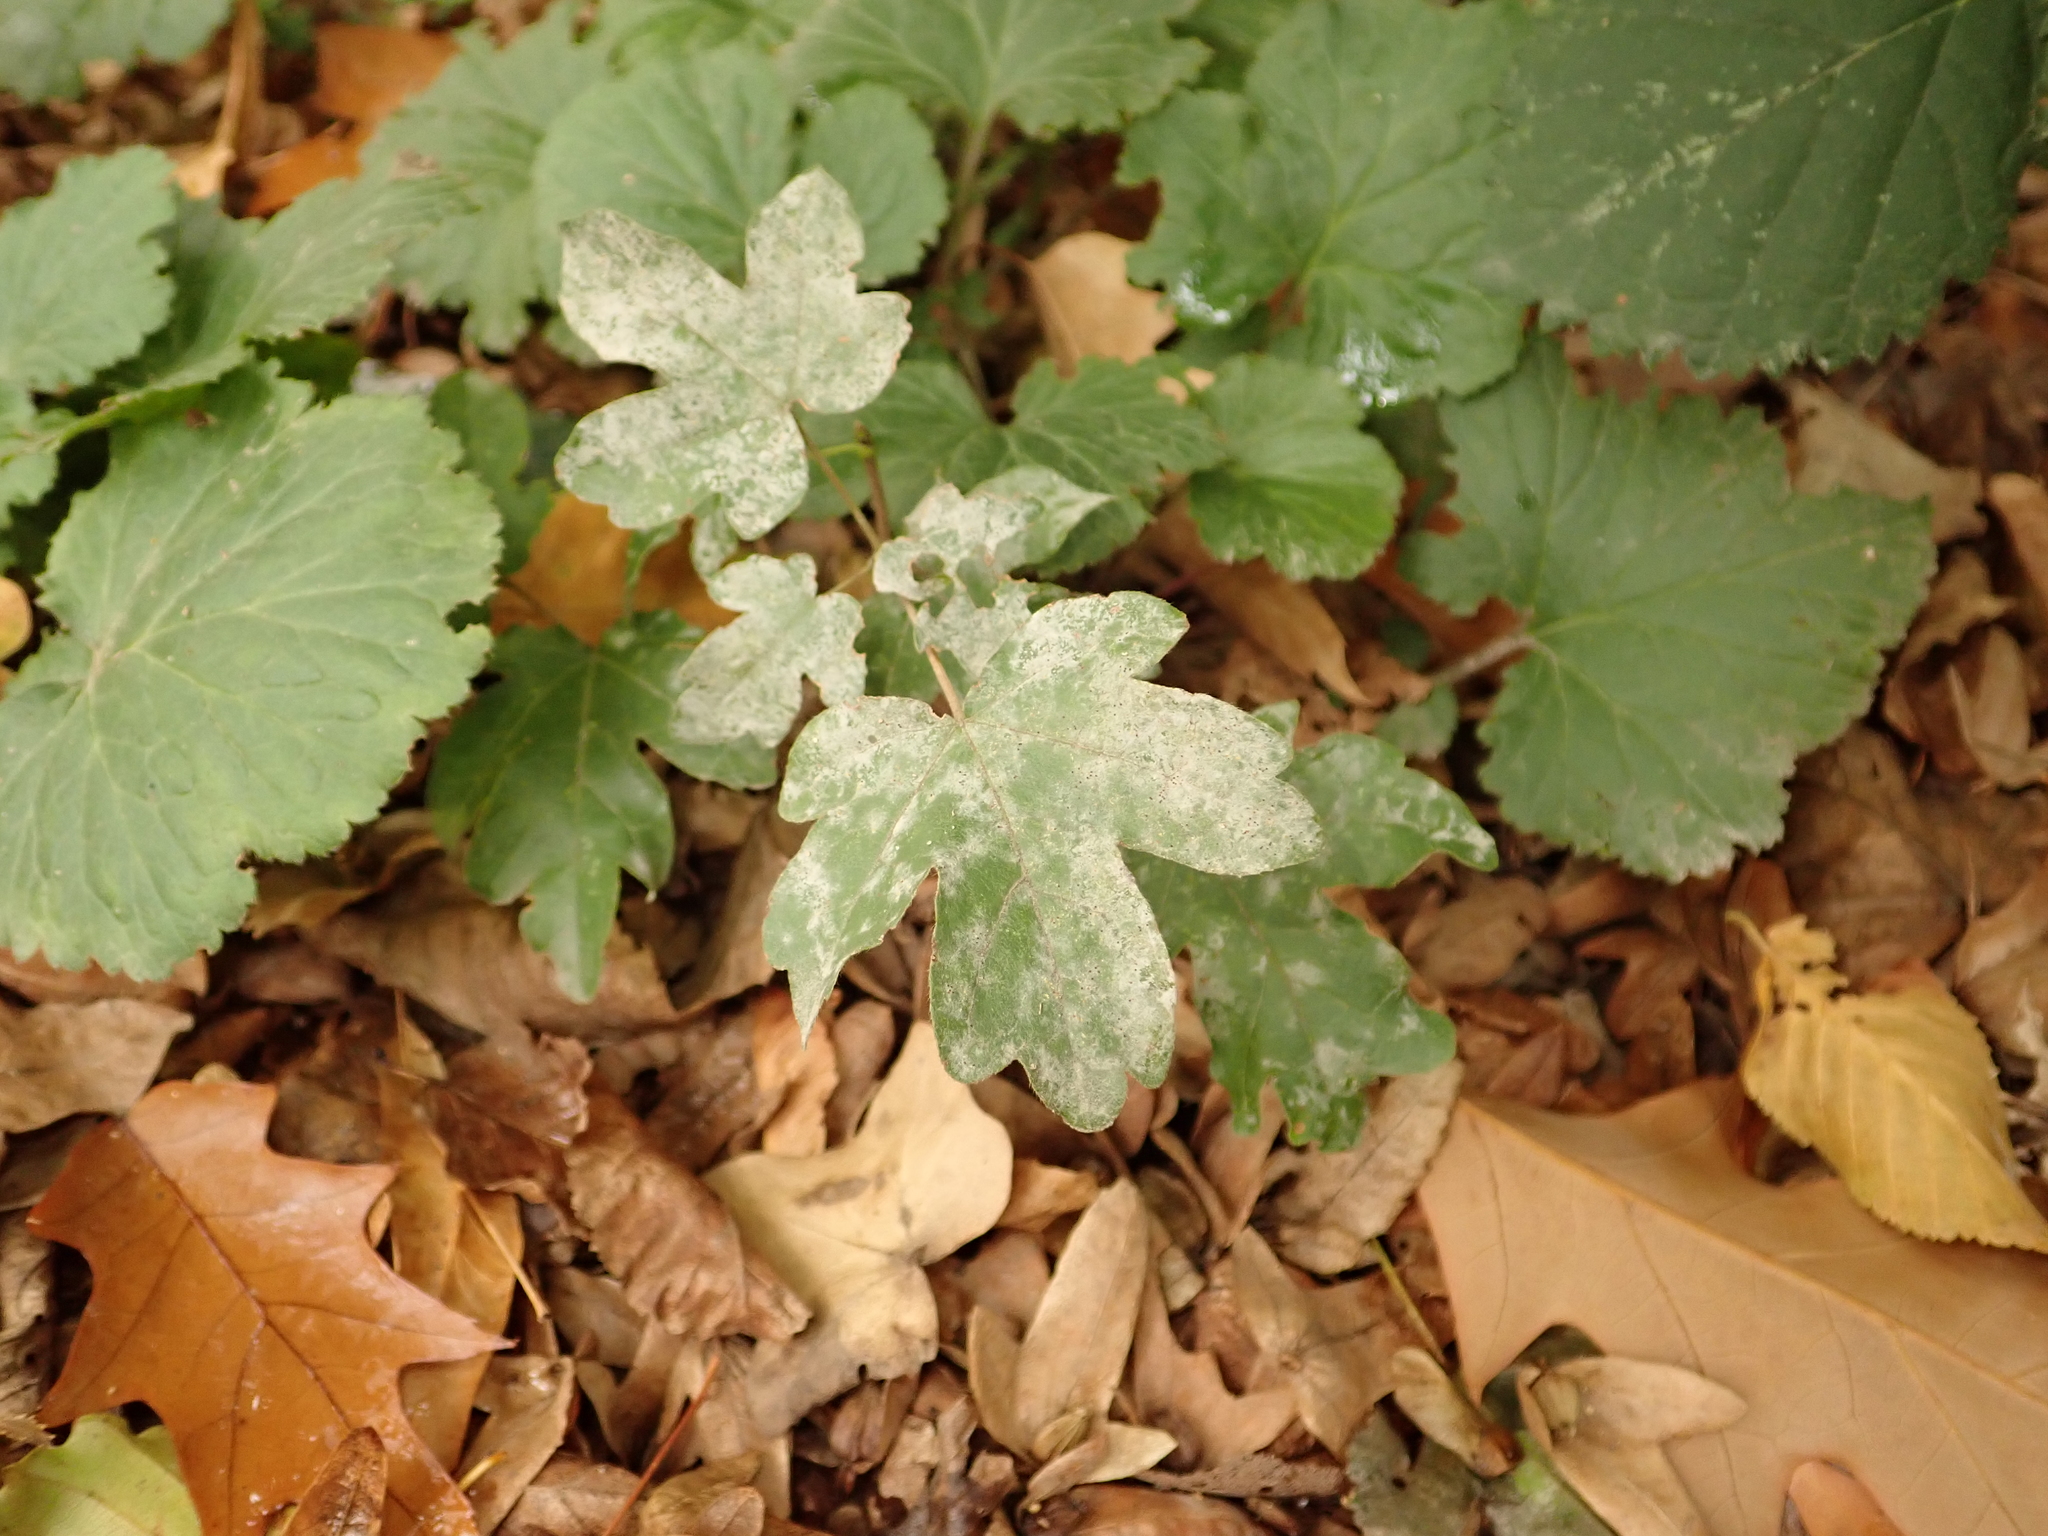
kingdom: Plantae
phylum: Tracheophyta
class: Magnoliopsida
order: Sapindales
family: Sapindaceae
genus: Acer
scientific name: Acer campestre
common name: Field maple
